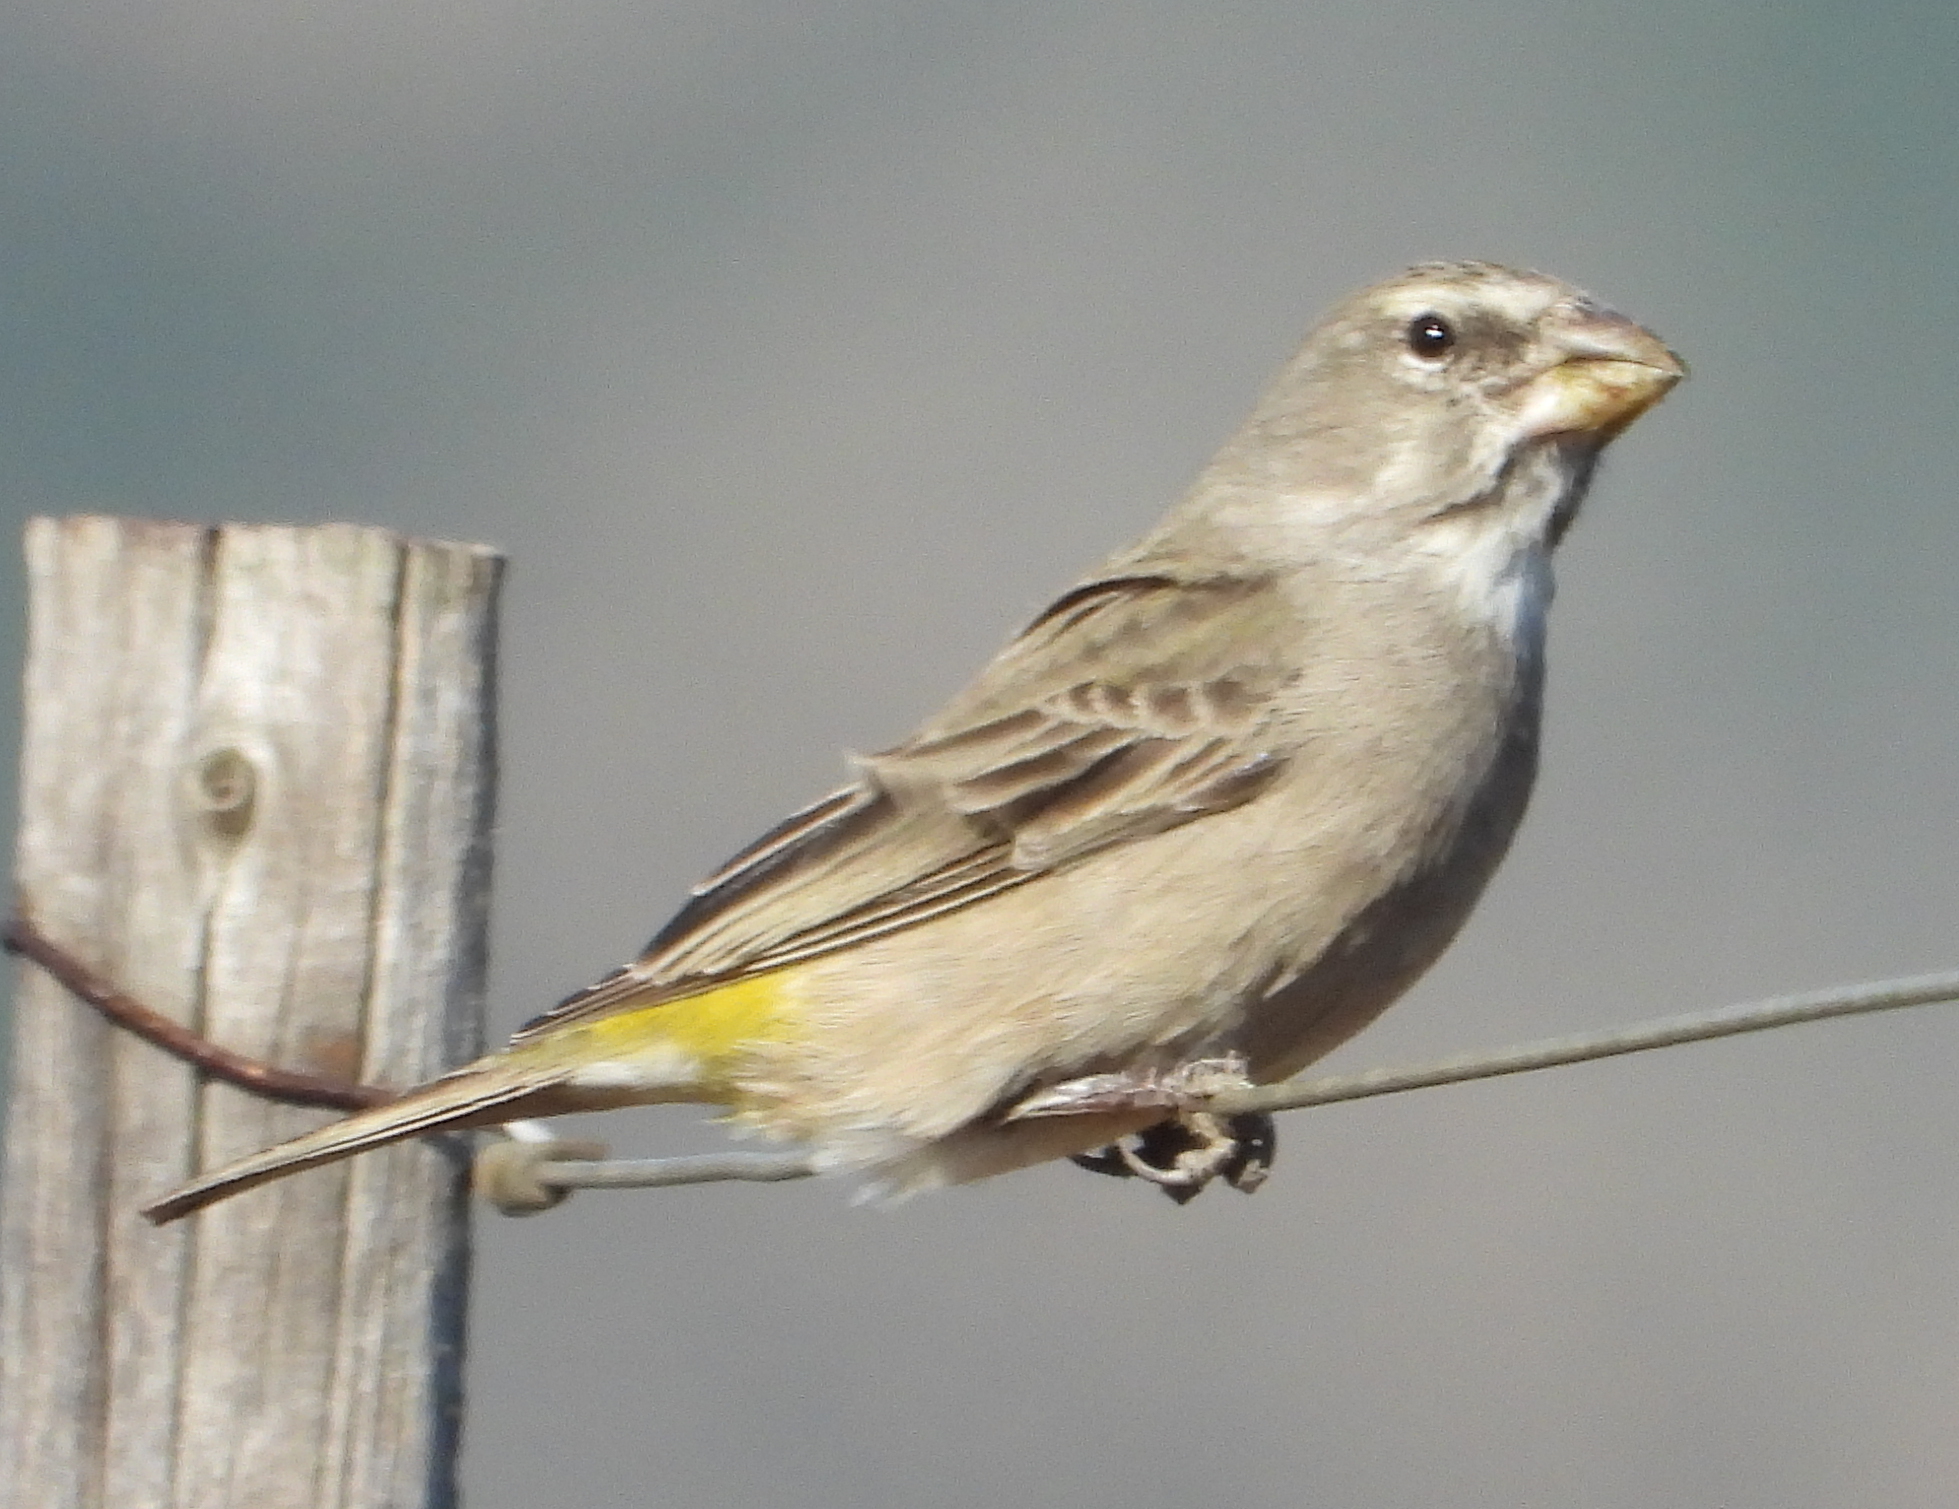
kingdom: Animalia
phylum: Chordata
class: Aves
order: Passeriformes
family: Fringillidae
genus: Crithagra
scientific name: Crithagra albogularis
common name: White-throated canary
